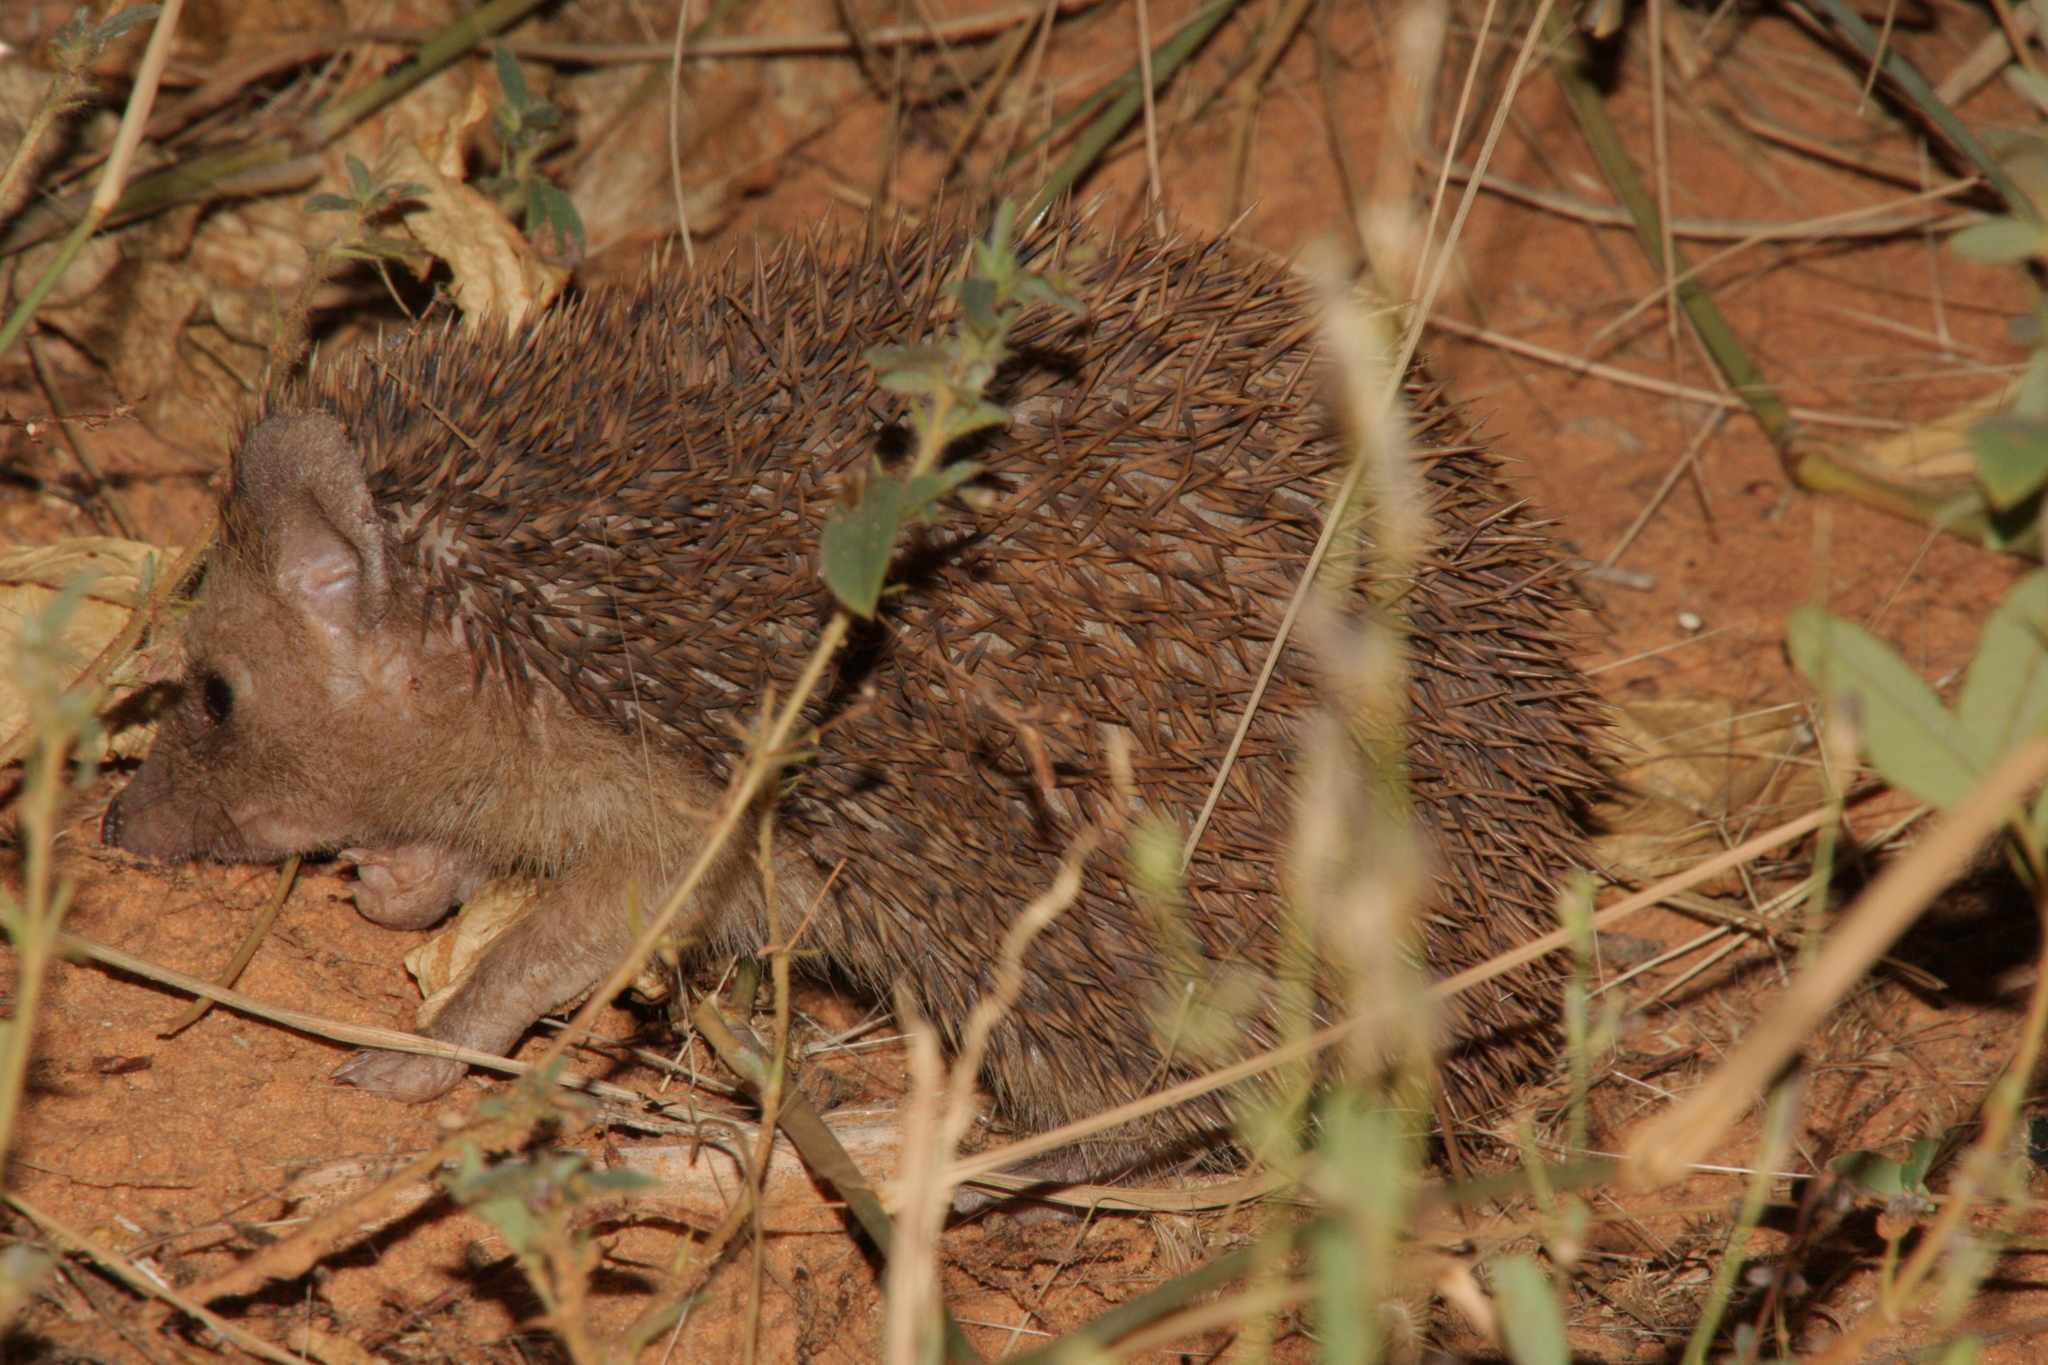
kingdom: Animalia
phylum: Chordata
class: Mammalia
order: Erinaceomorpha
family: Erinaceidae
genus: Atelerix
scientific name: Atelerix albiventris
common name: Four-toed hedgehog
